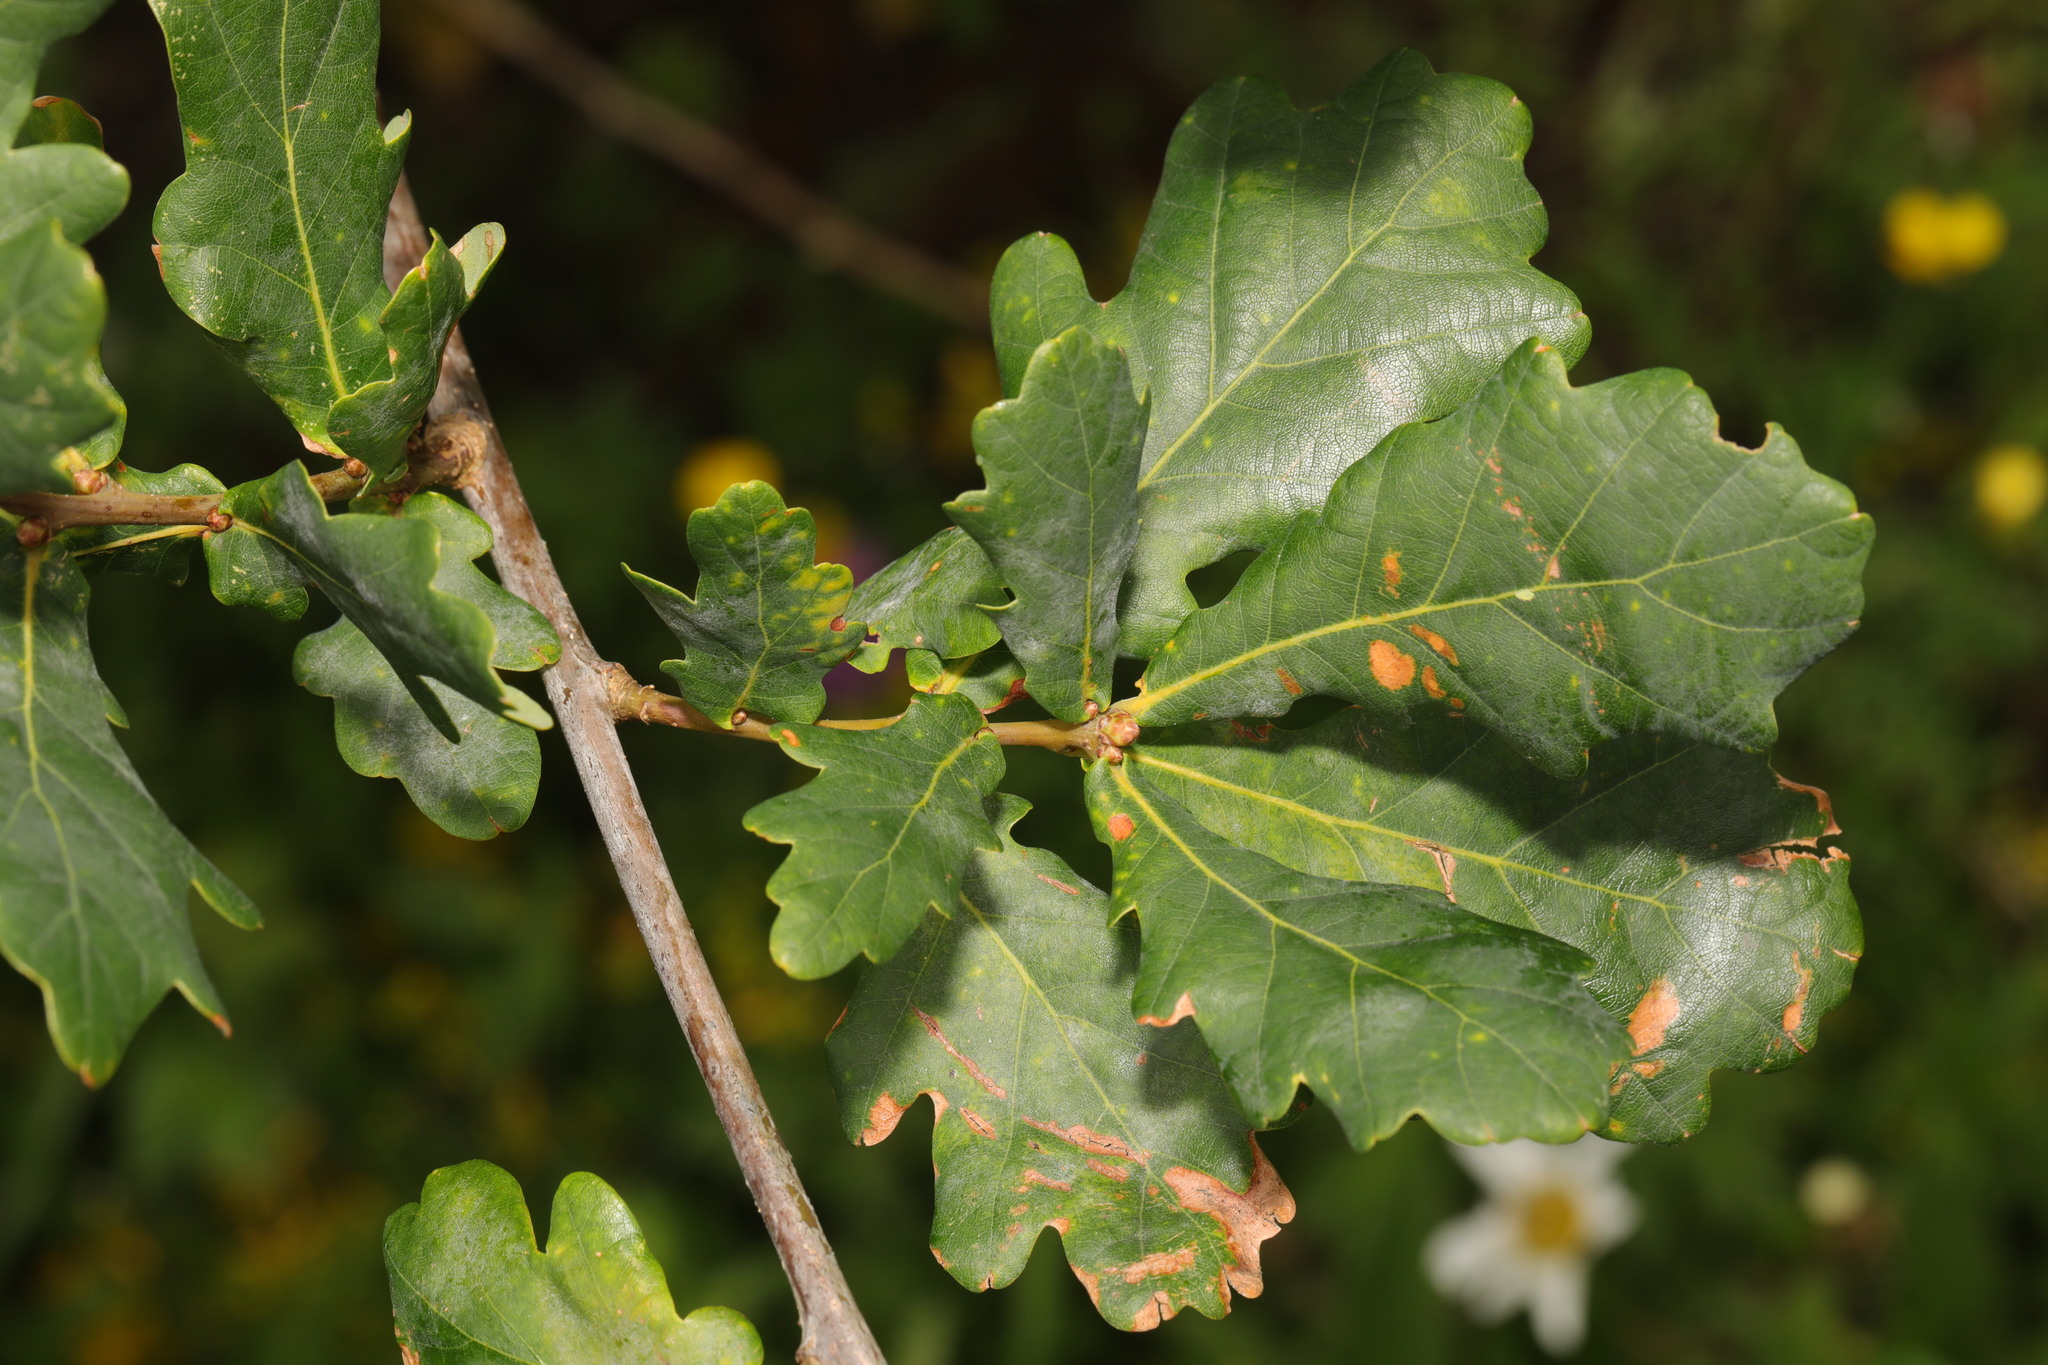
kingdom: Plantae
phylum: Tracheophyta
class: Magnoliopsida
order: Fagales
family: Fagaceae
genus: Quercus
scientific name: Quercus robur
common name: Pedunculate oak
